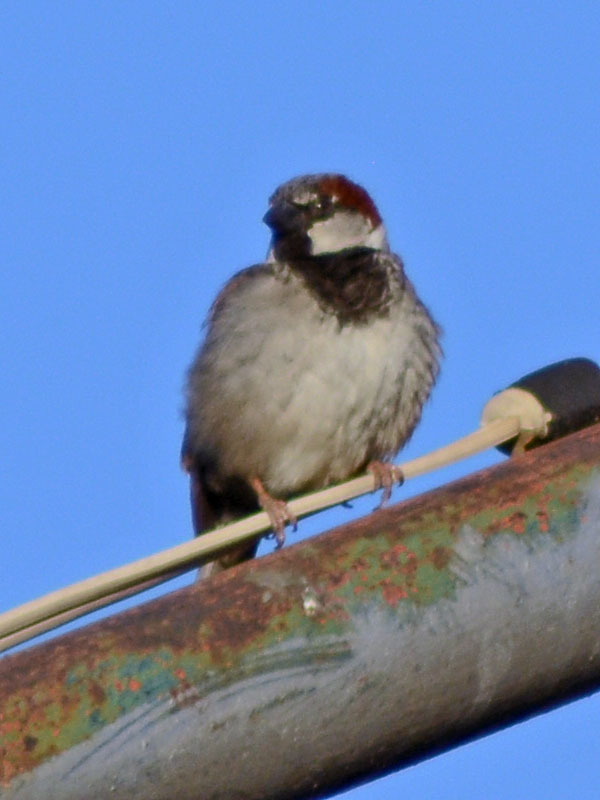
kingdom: Animalia
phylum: Chordata
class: Aves
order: Passeriformes
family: Passeridae
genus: Passer
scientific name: Passer domesticus
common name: House sparrow
